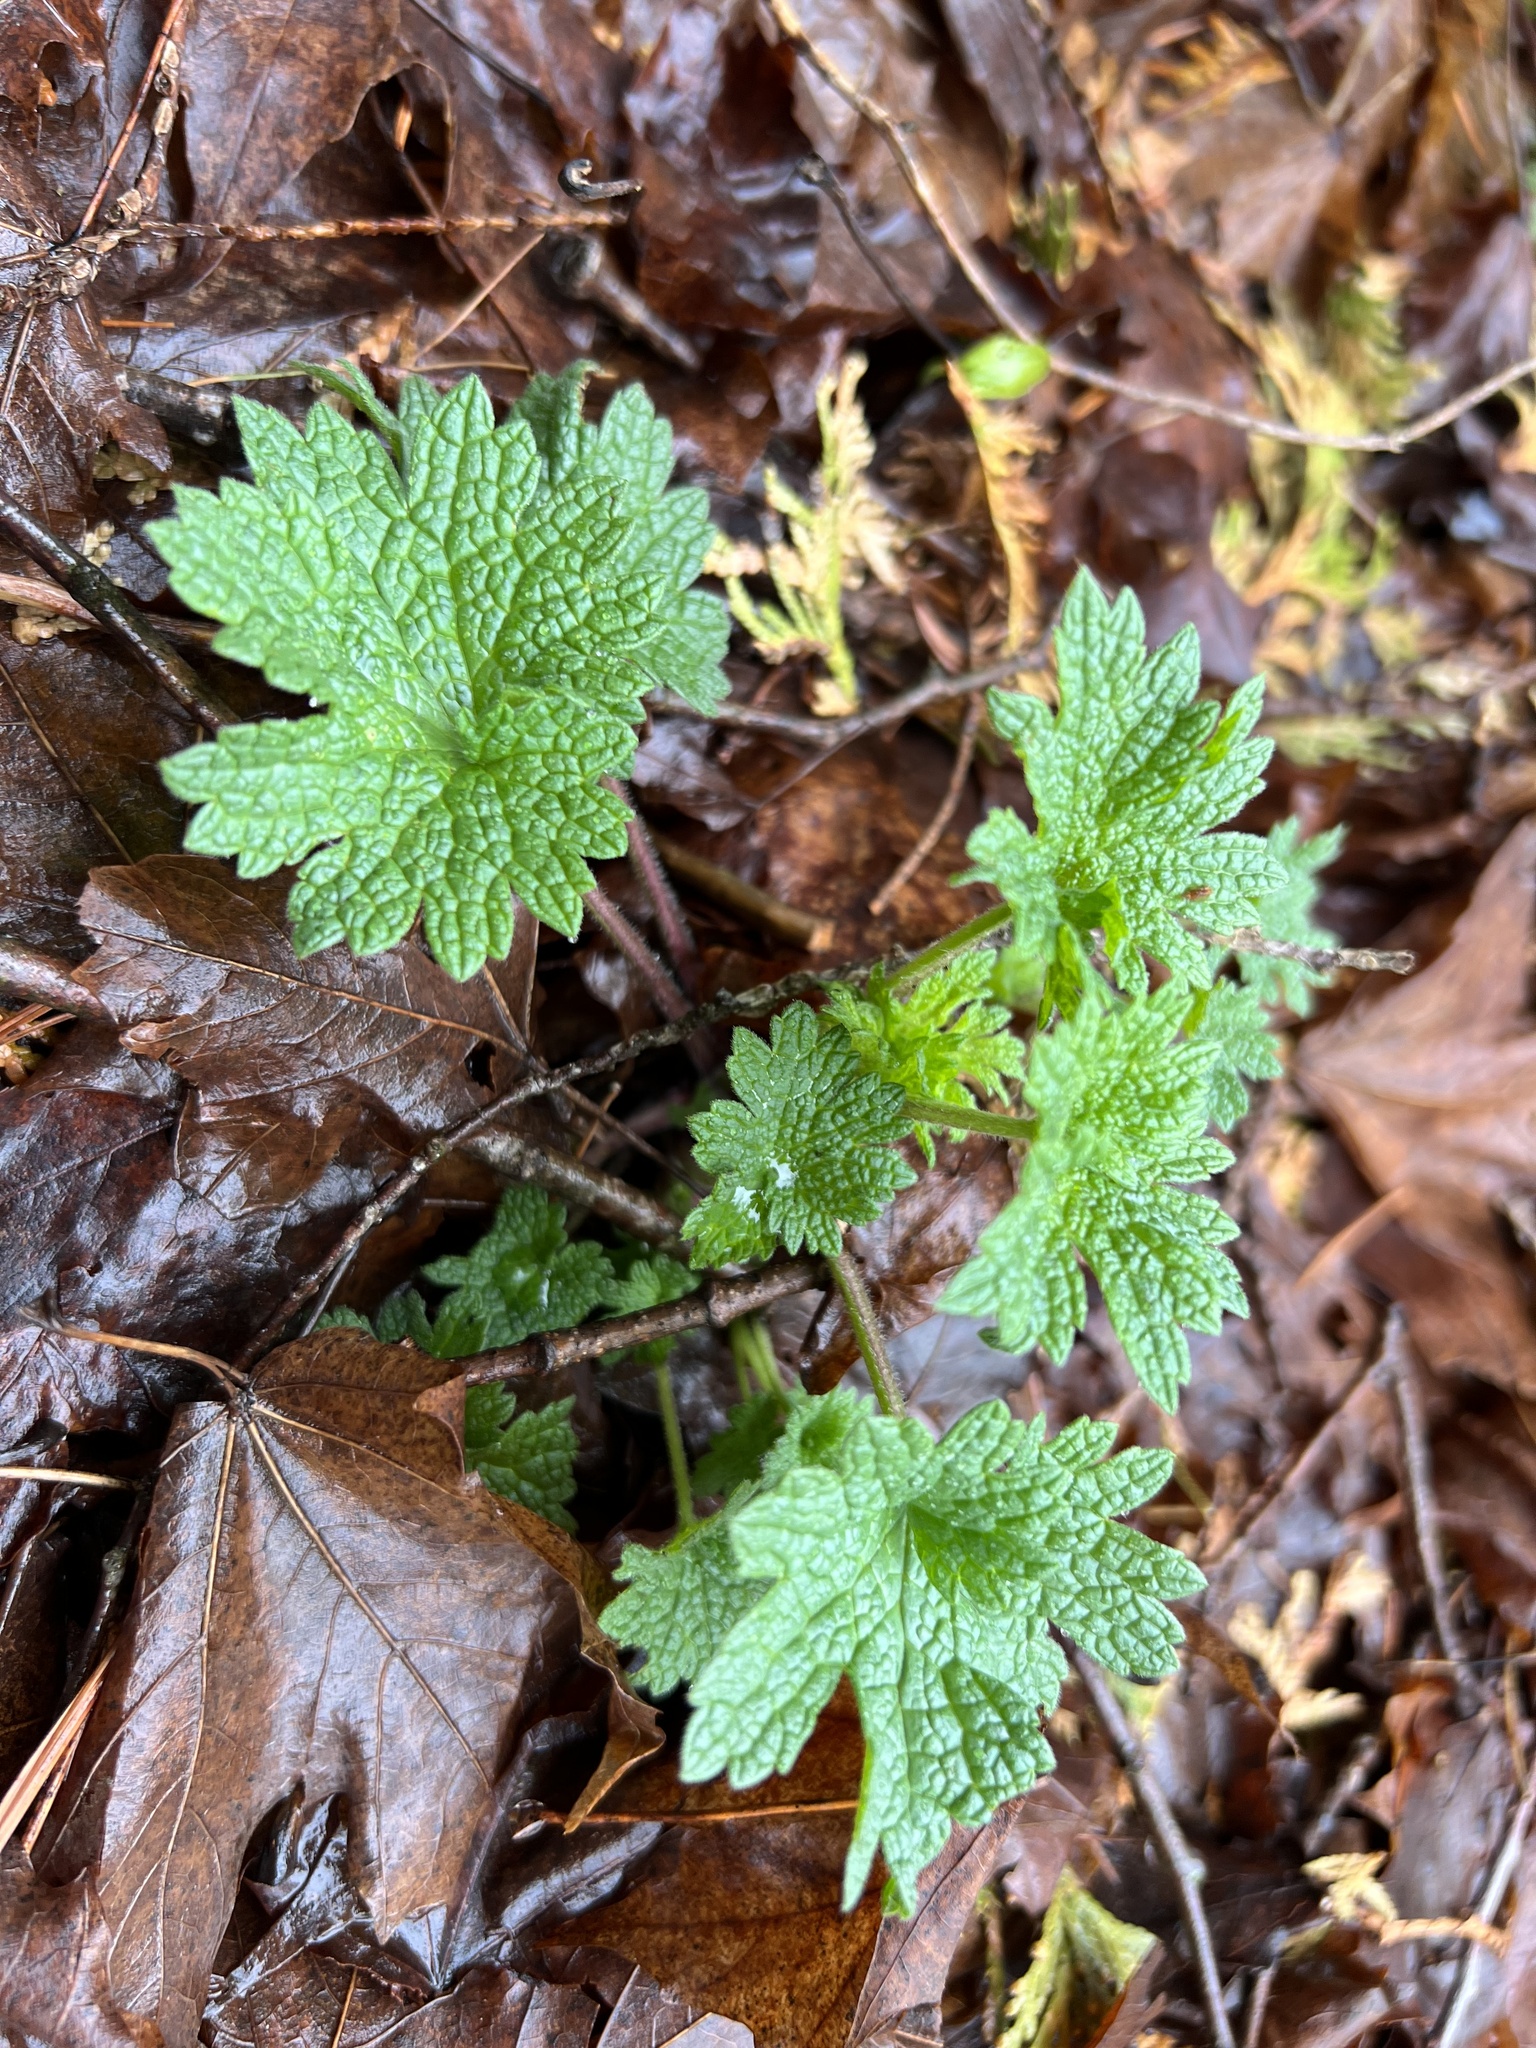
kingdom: Plantae
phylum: Tracheophyta
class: Magnoliopsida
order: Lamiales
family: Lamiaceae
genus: Leonurus
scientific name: Leonurus cardiaca
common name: Motherwort
